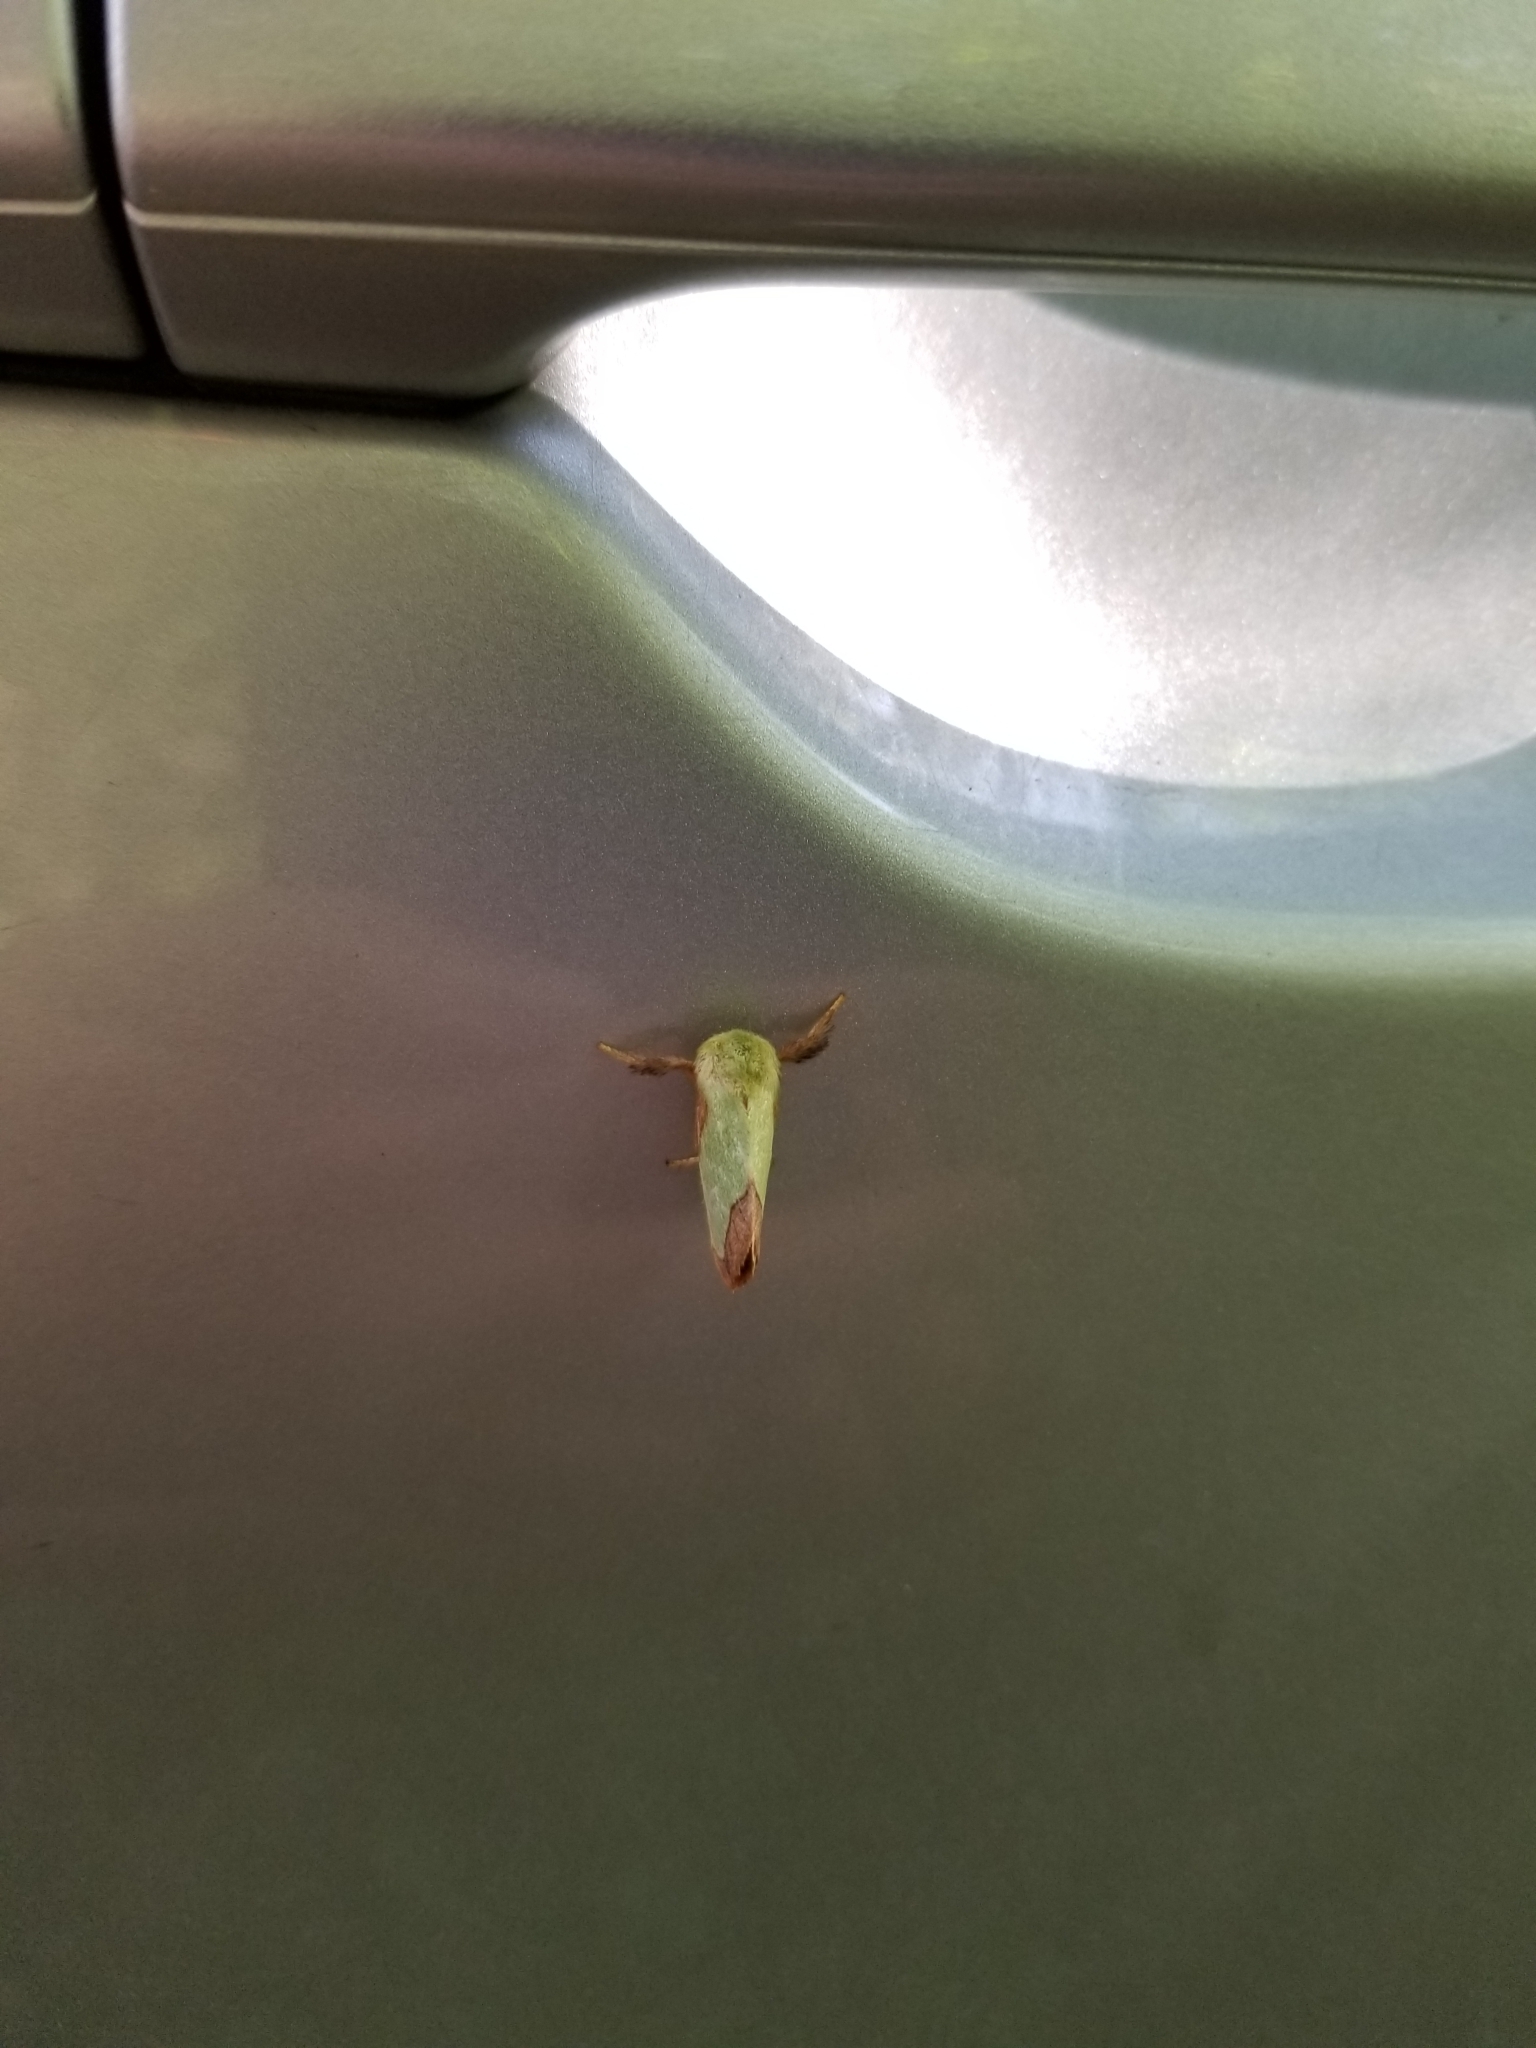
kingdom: Animalia
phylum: Arthropoda
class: Insecta
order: Lepidoptera
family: Limacodidae
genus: Parasa
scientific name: Parasa chloris
